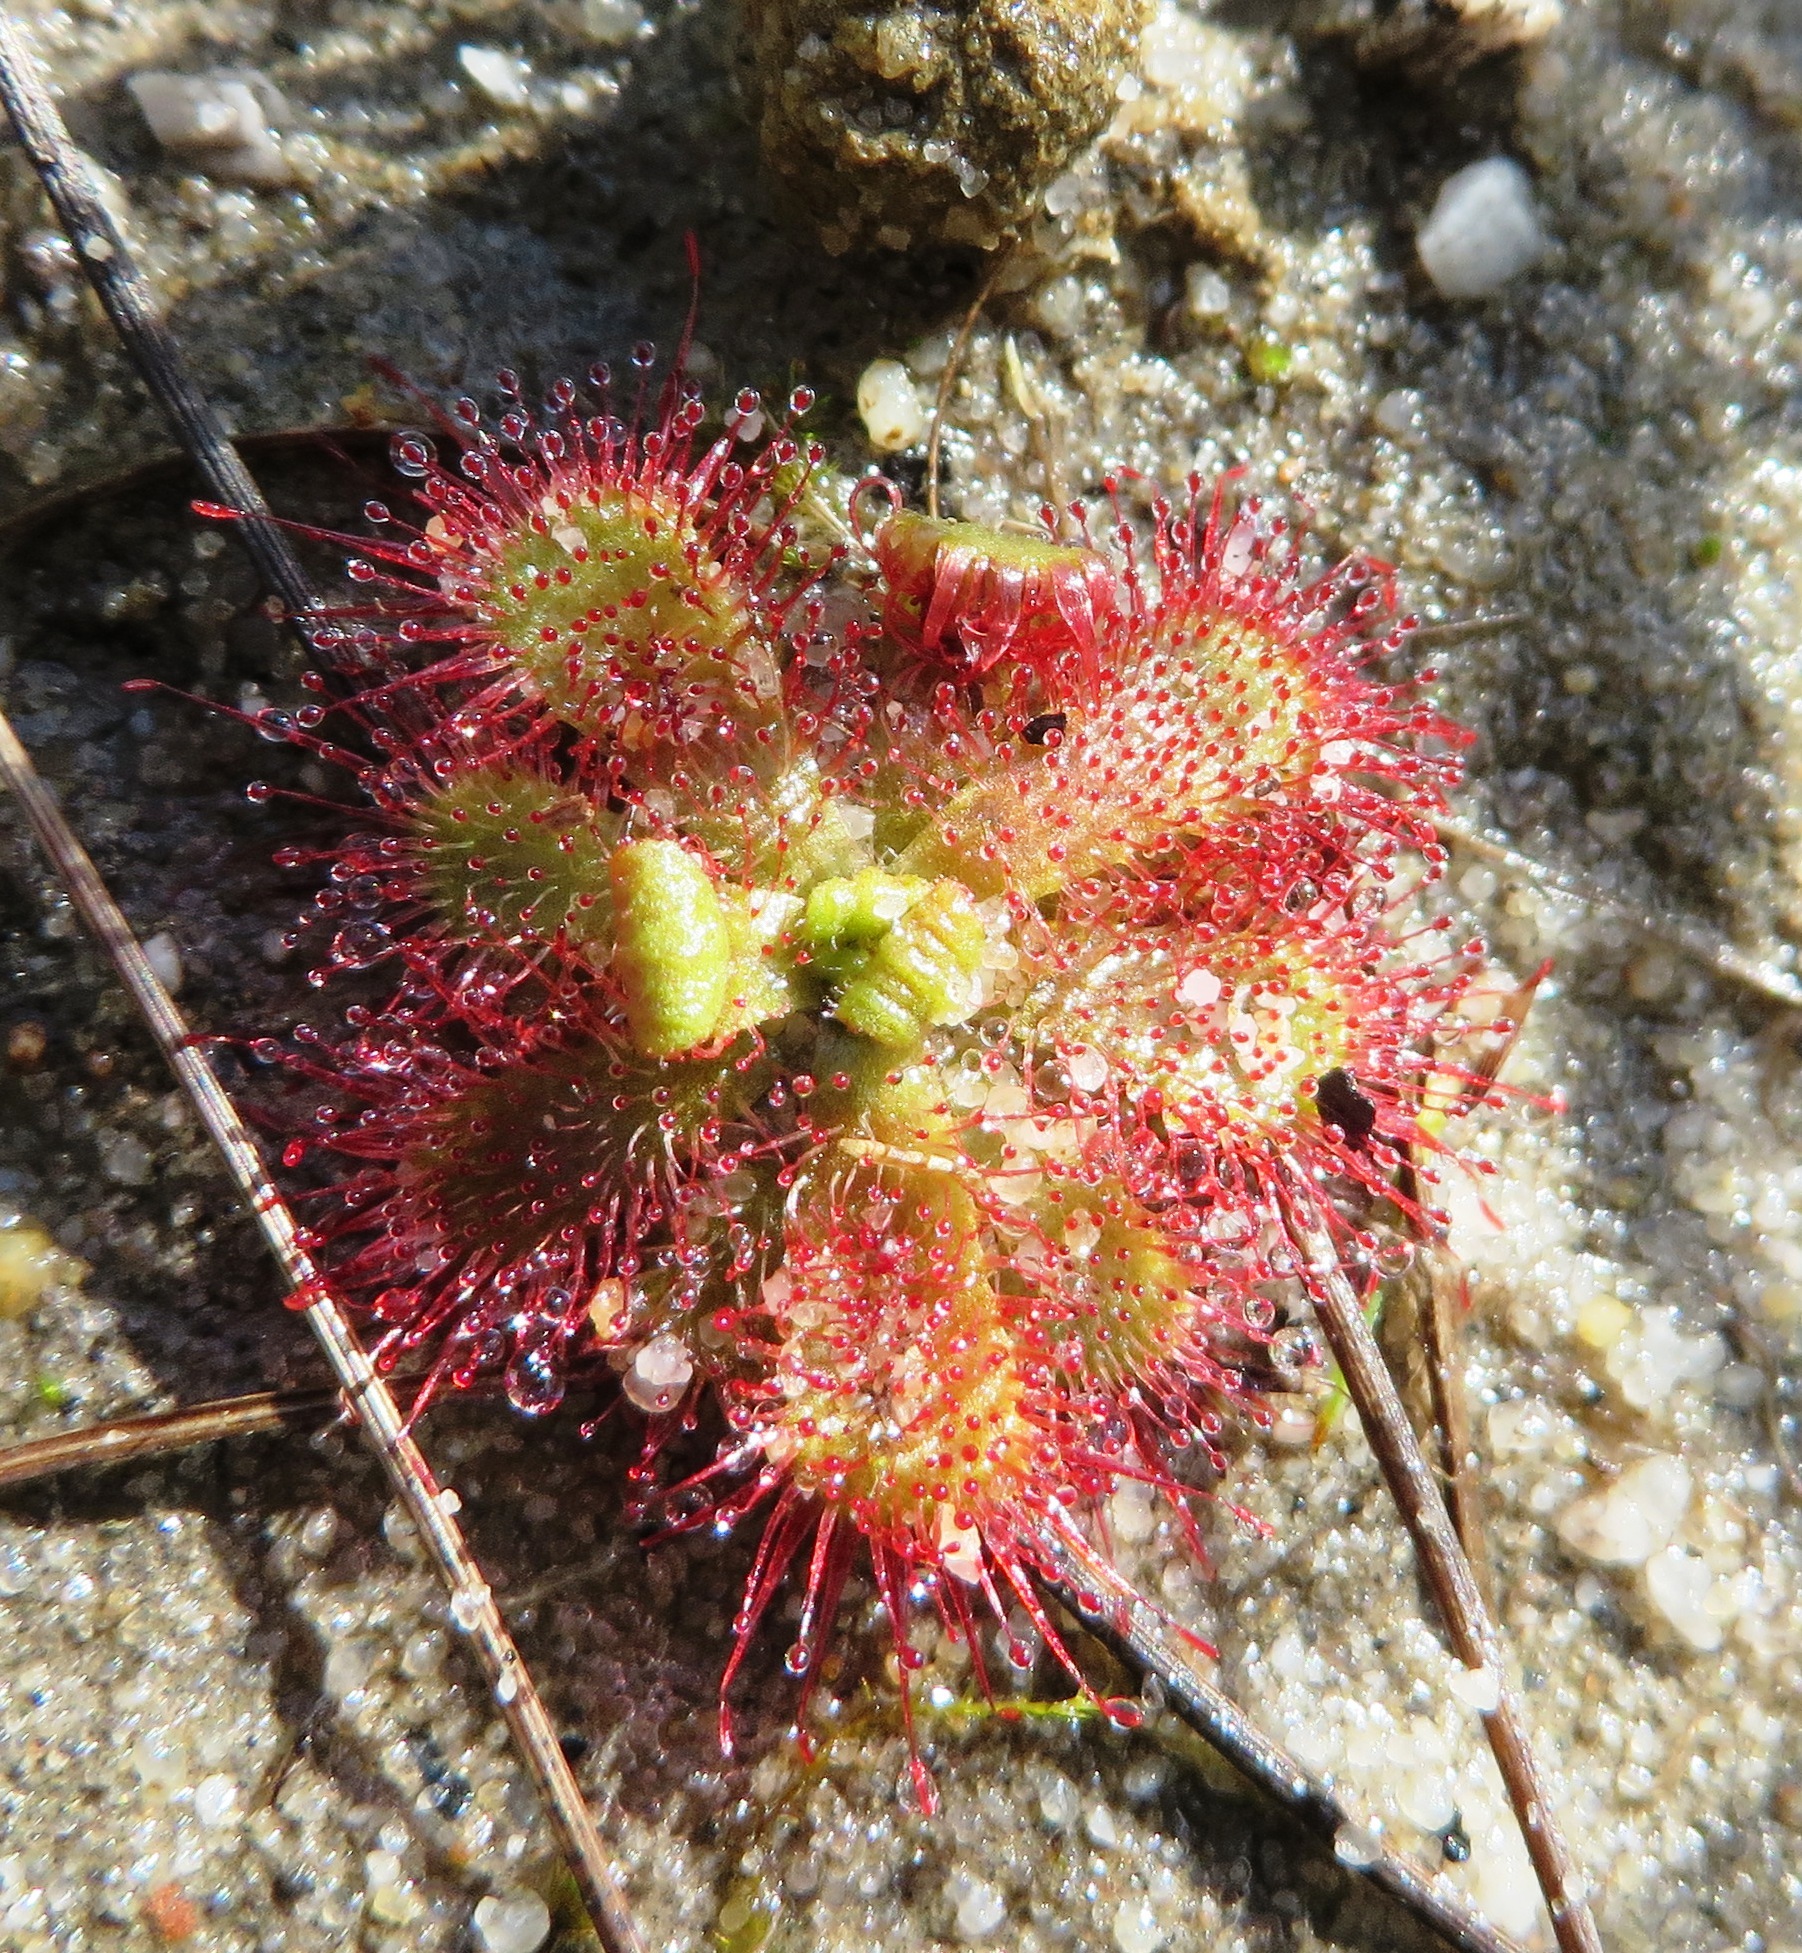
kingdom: Plantae
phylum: Tracheophyta
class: Magnoliopsida
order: Caryophyllales
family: Droseraceae
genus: Drosera
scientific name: Drosera trinervia
